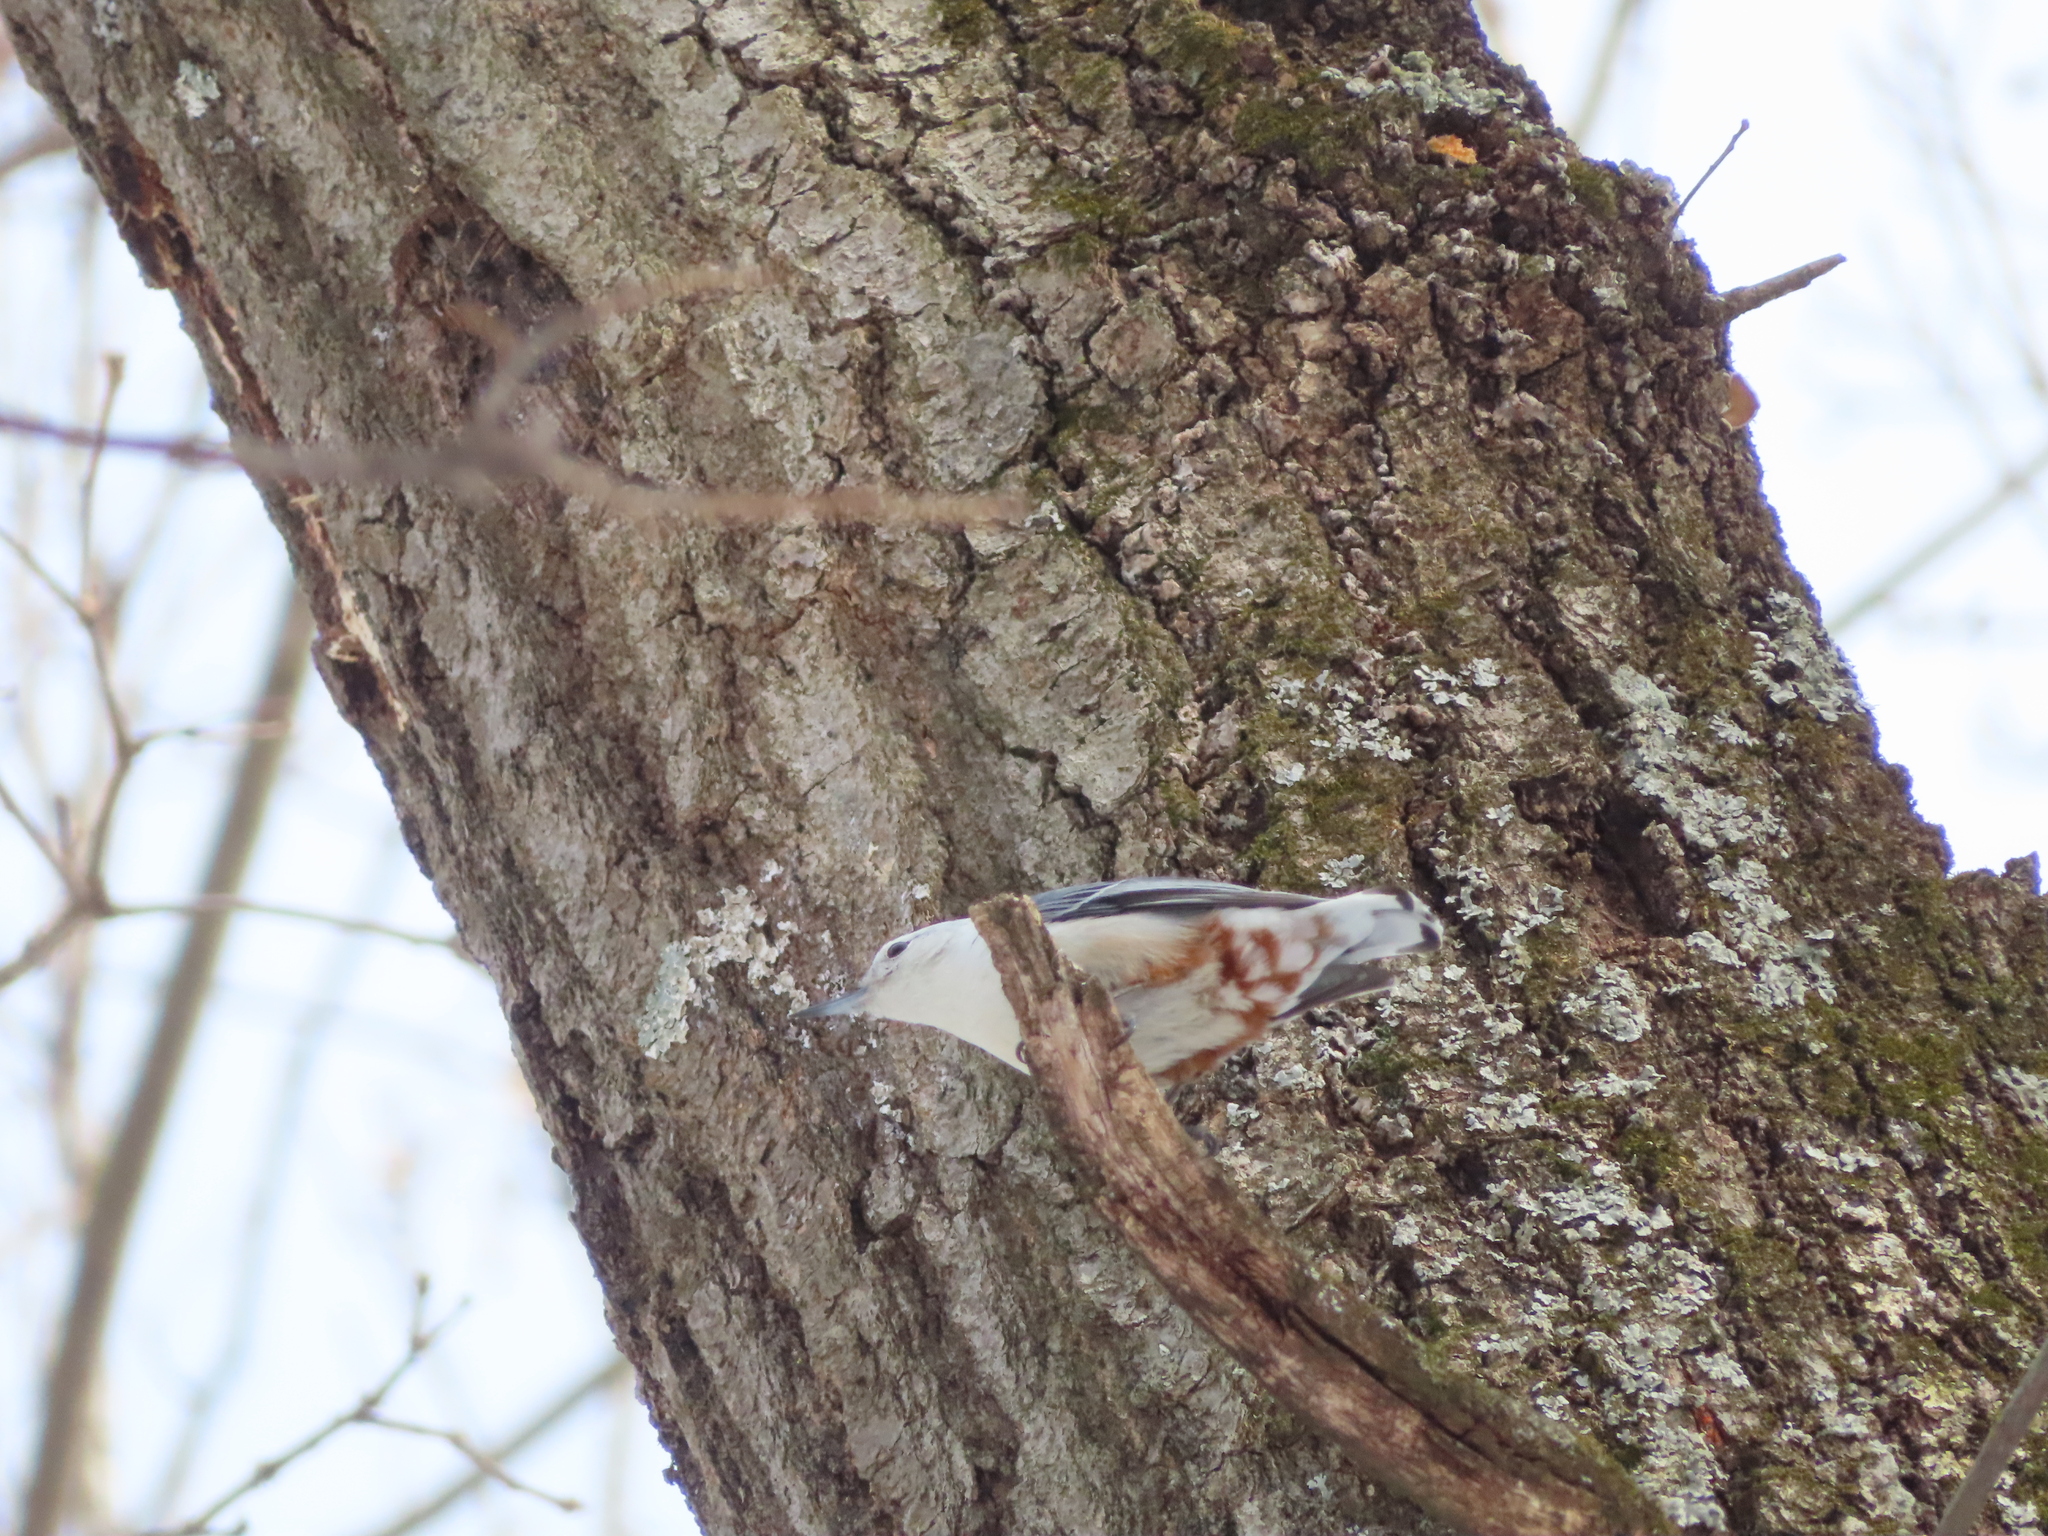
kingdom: Animalia
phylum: Chordata
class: Aves
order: Passeriformes
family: Sittidae
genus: Sitta
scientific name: Sitta carolinensis
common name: White-breasted nuthatch
